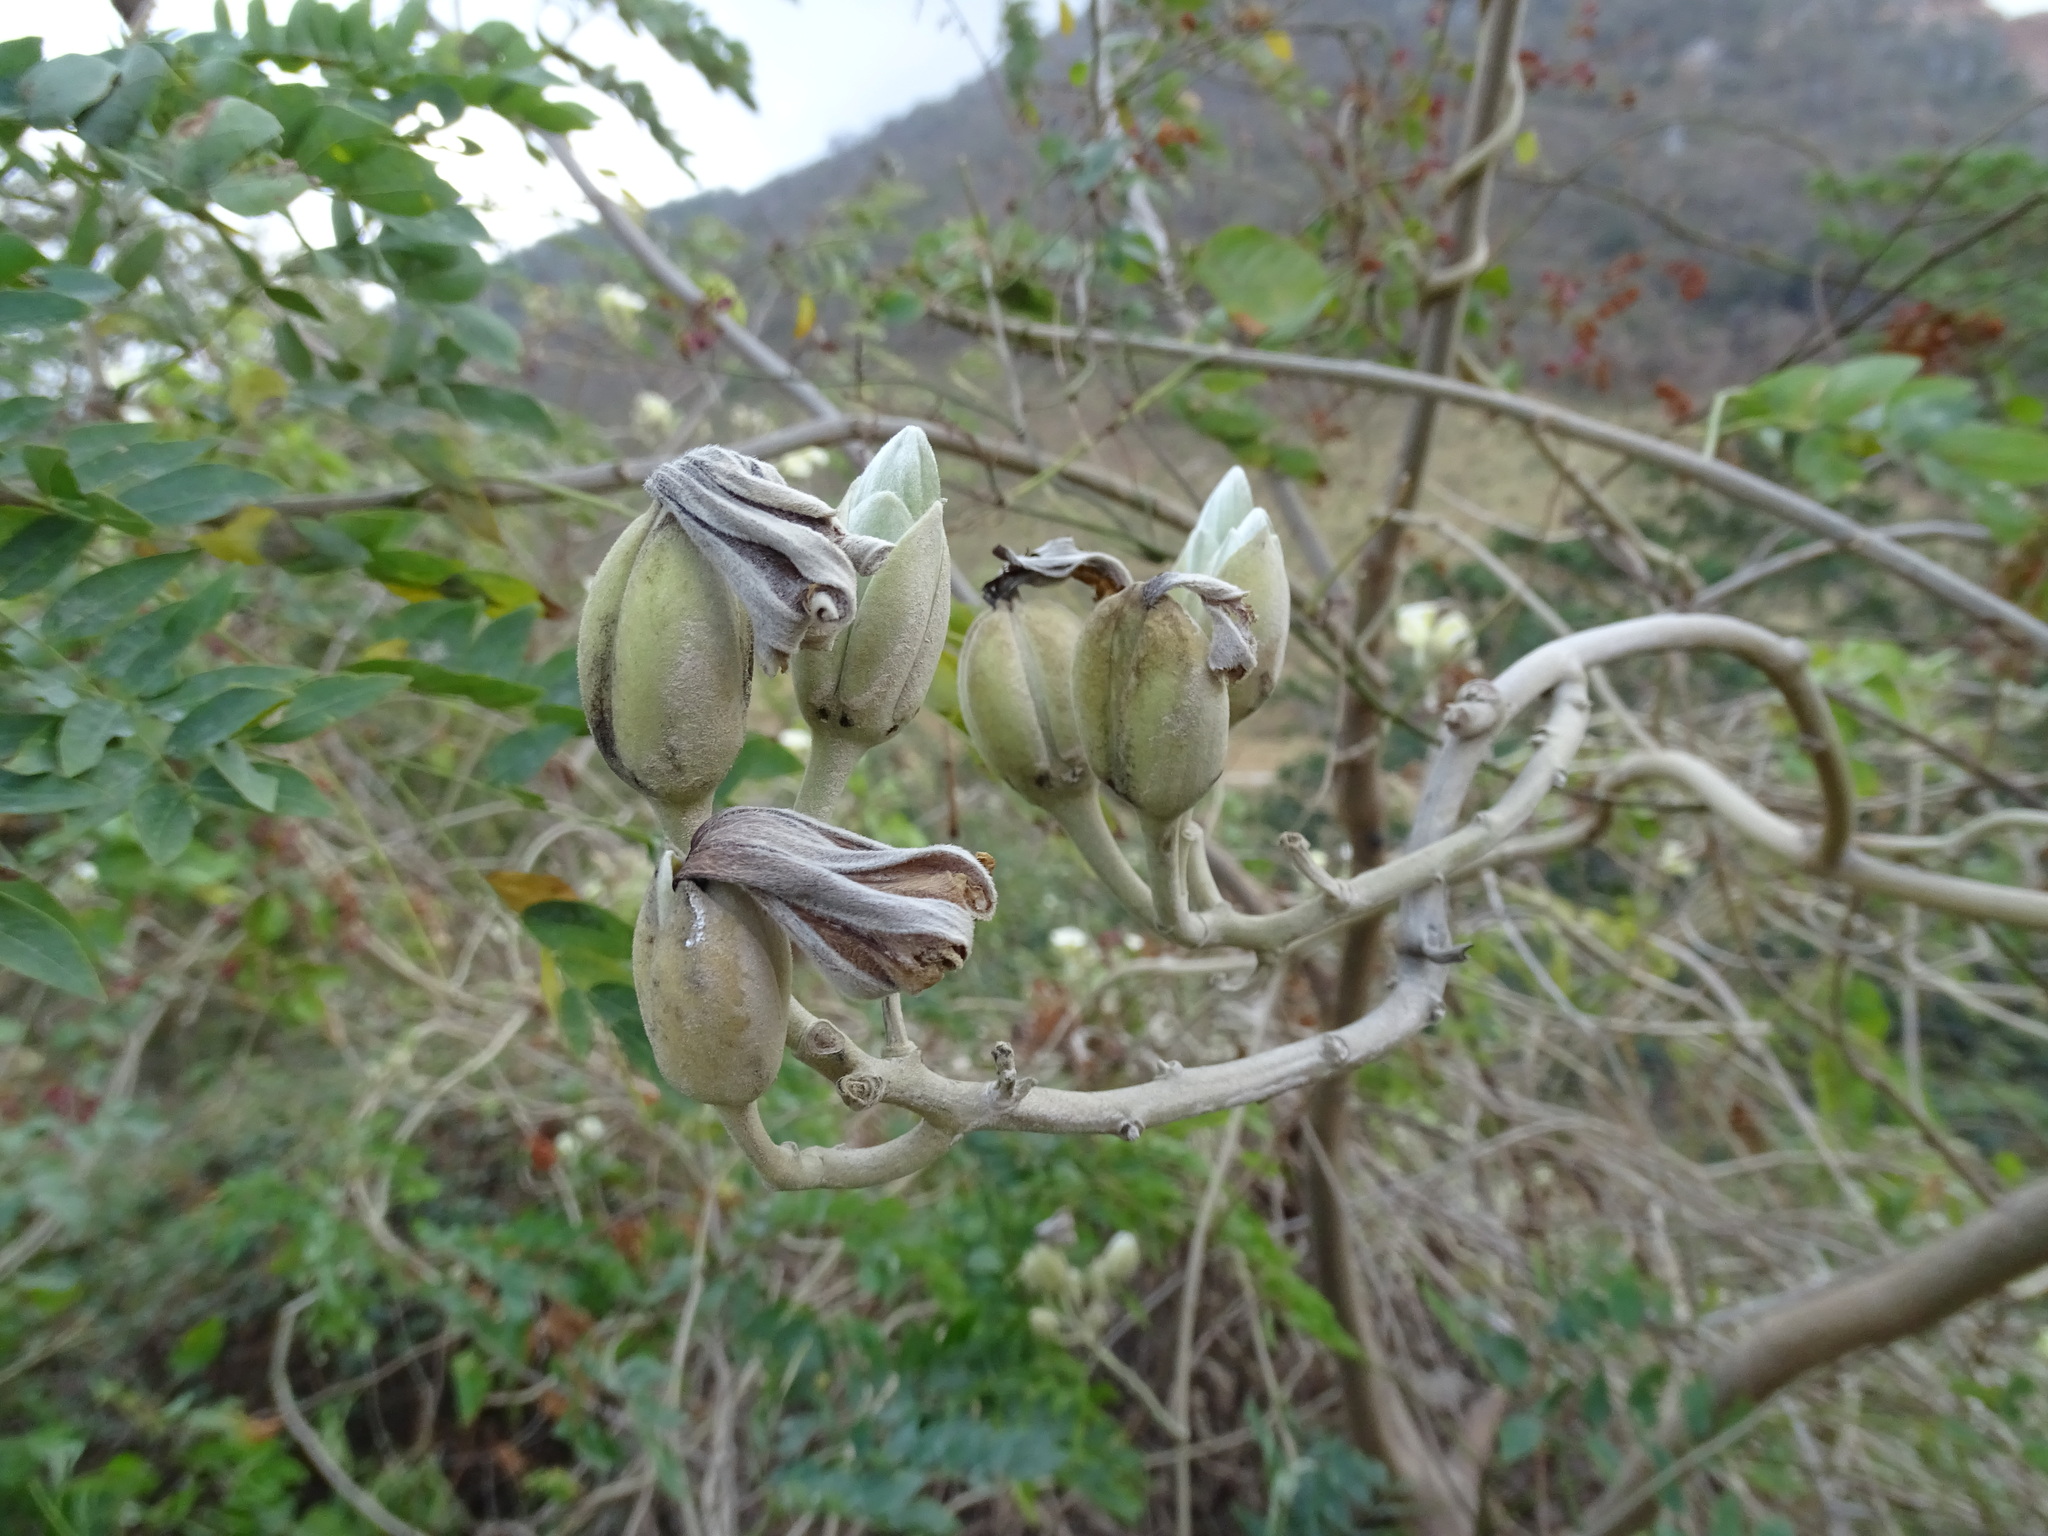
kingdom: Plantae
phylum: Tracheophyta
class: Magnoliopsida
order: Solanales
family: Convolvulaceae
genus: Ipomoea
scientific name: Ipomoea praecana
